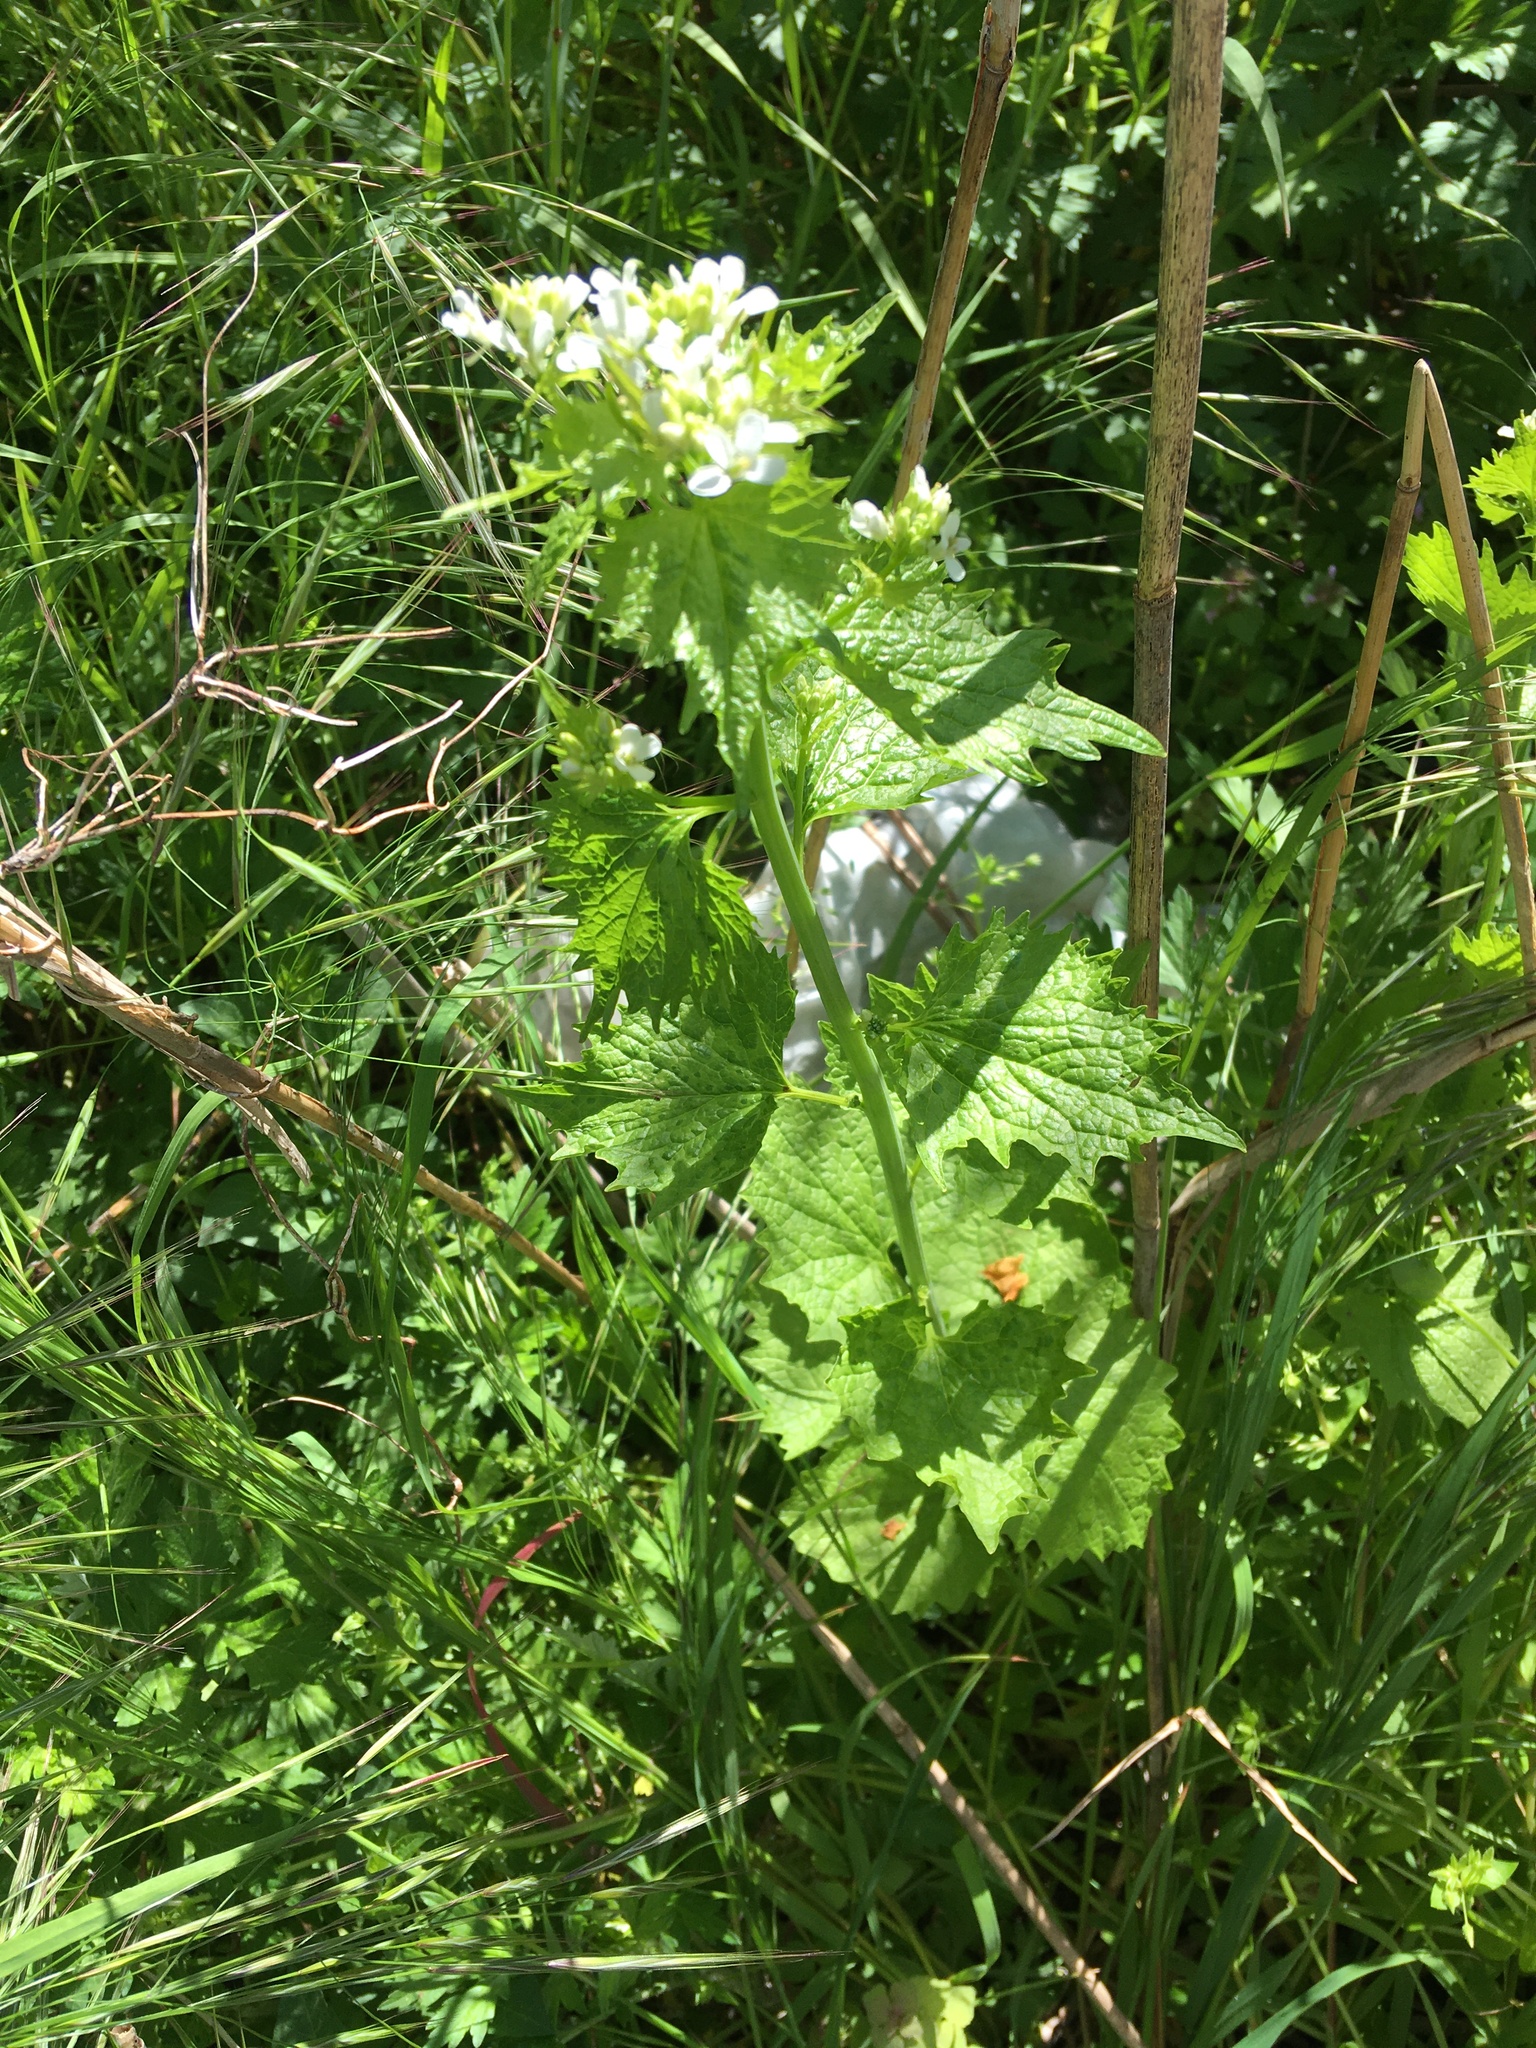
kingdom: Plantae
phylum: Tracheophyta
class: Magnoliopsida
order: Brassicales
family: Brassicaceae
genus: Alliaria
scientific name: Alliaria petiolata
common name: Garlic mustard
